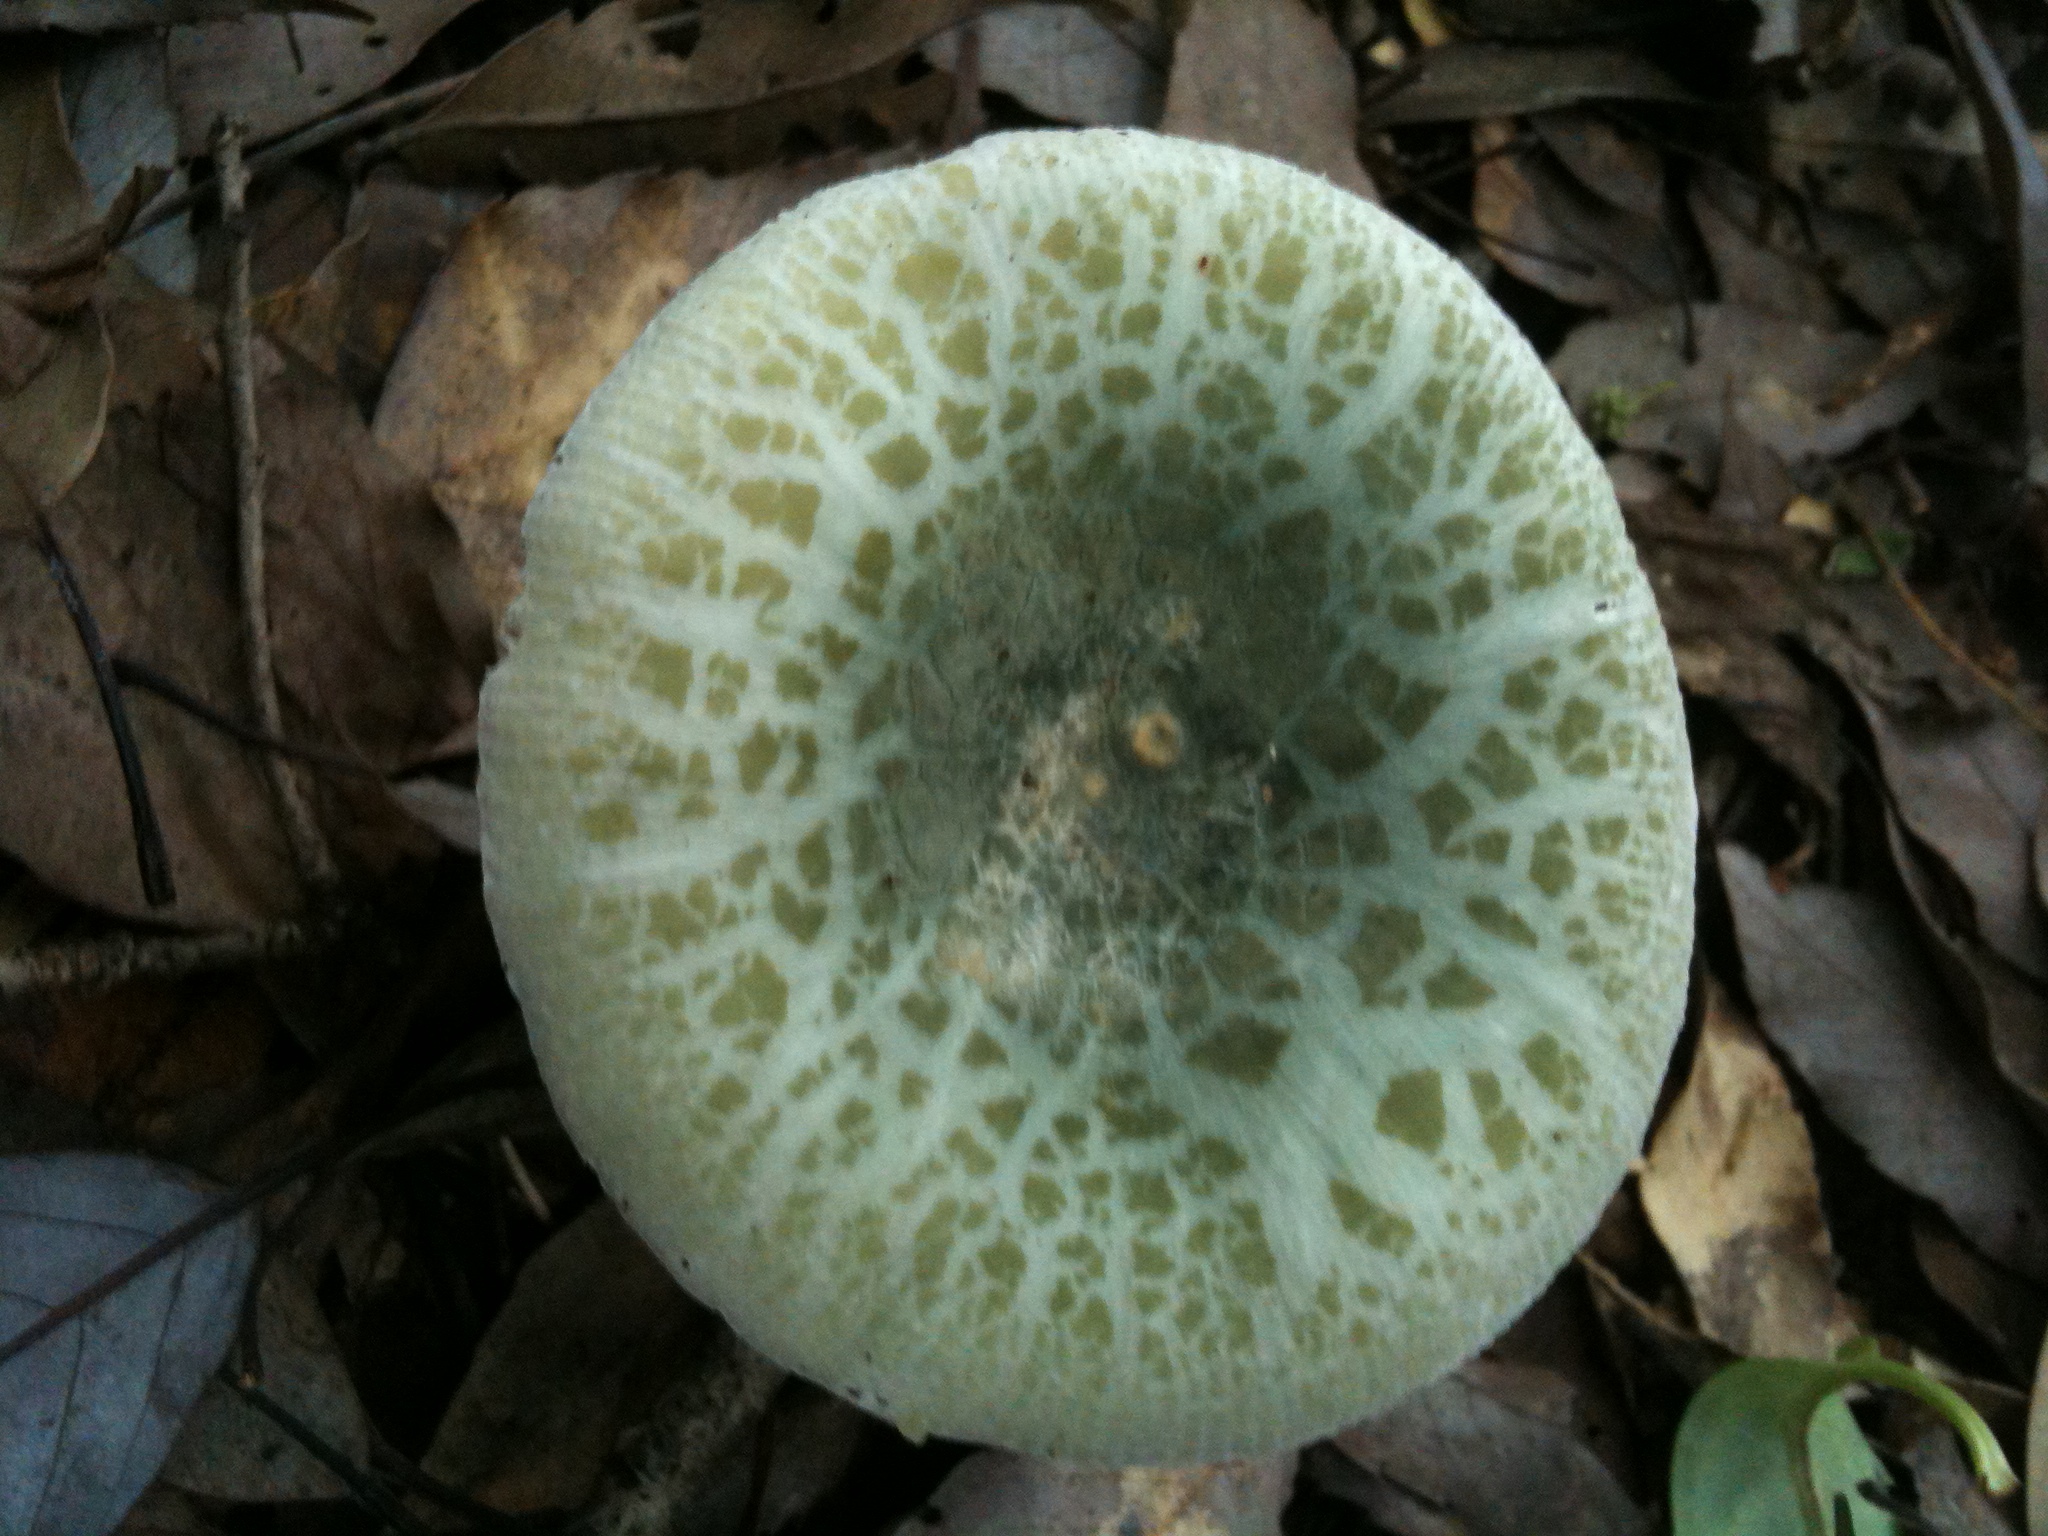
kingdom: Fungi
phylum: Basidiomycota
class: Agaricomycetes
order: Russulales
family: Russulaceae
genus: Russula
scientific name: Russula virescens
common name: Greencracked brittlegill
